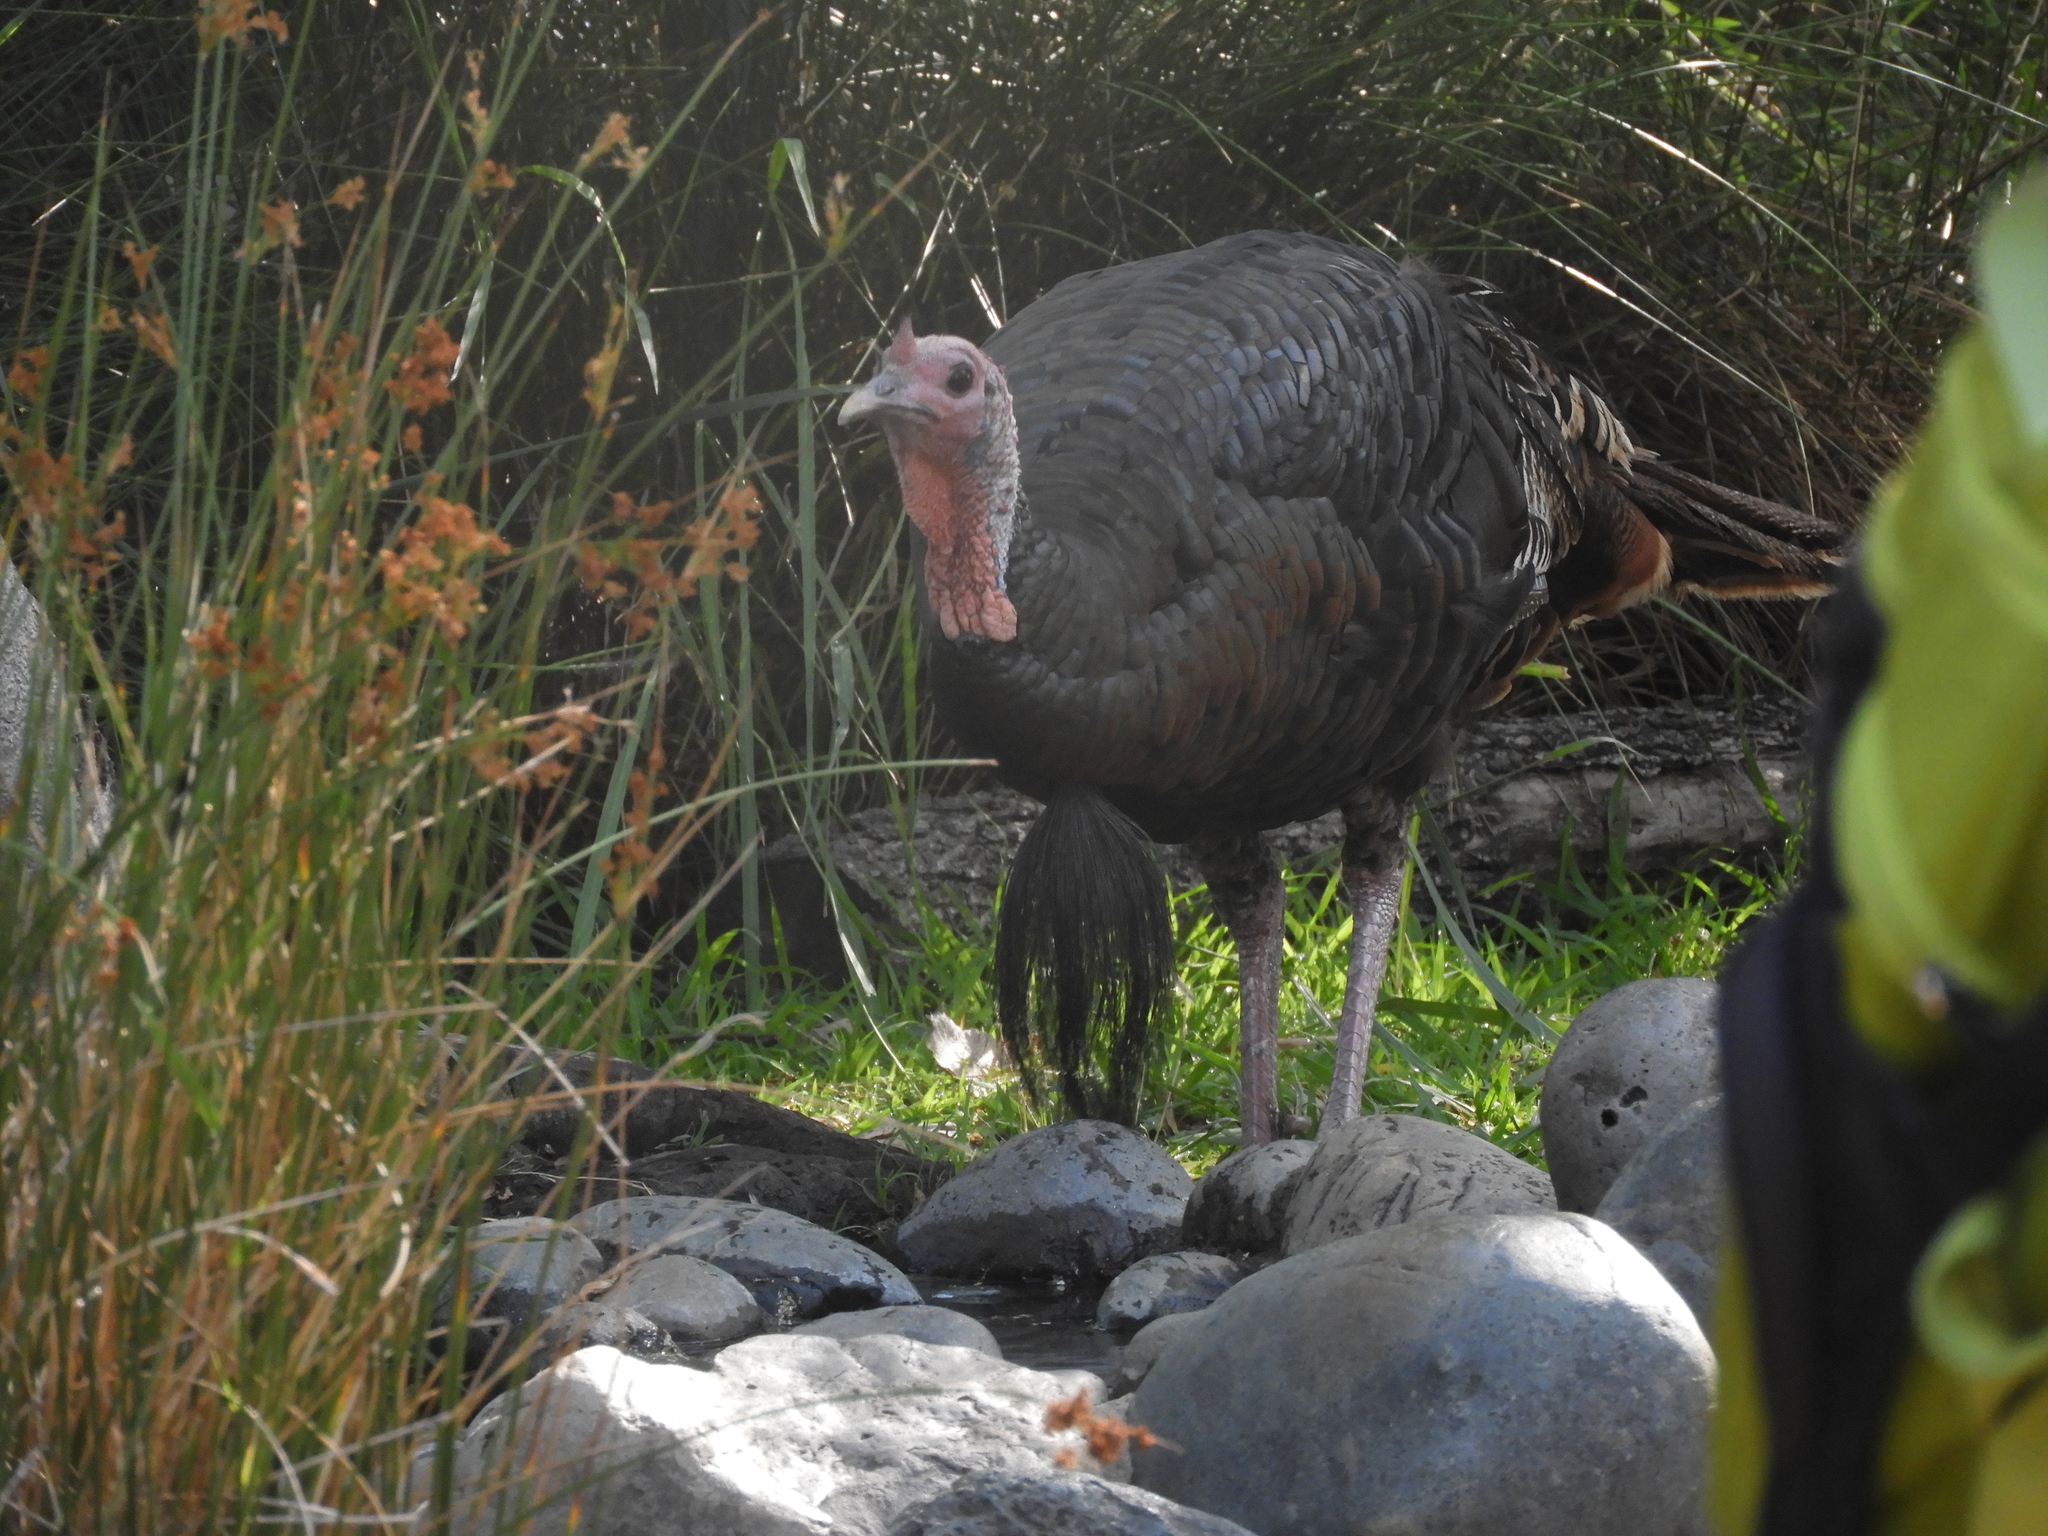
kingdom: Animalia
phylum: Chordata
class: Aves
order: Galliformes
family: Phasianidae
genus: Meleagris
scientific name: Meleagris gallopavo
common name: Wild turkey
